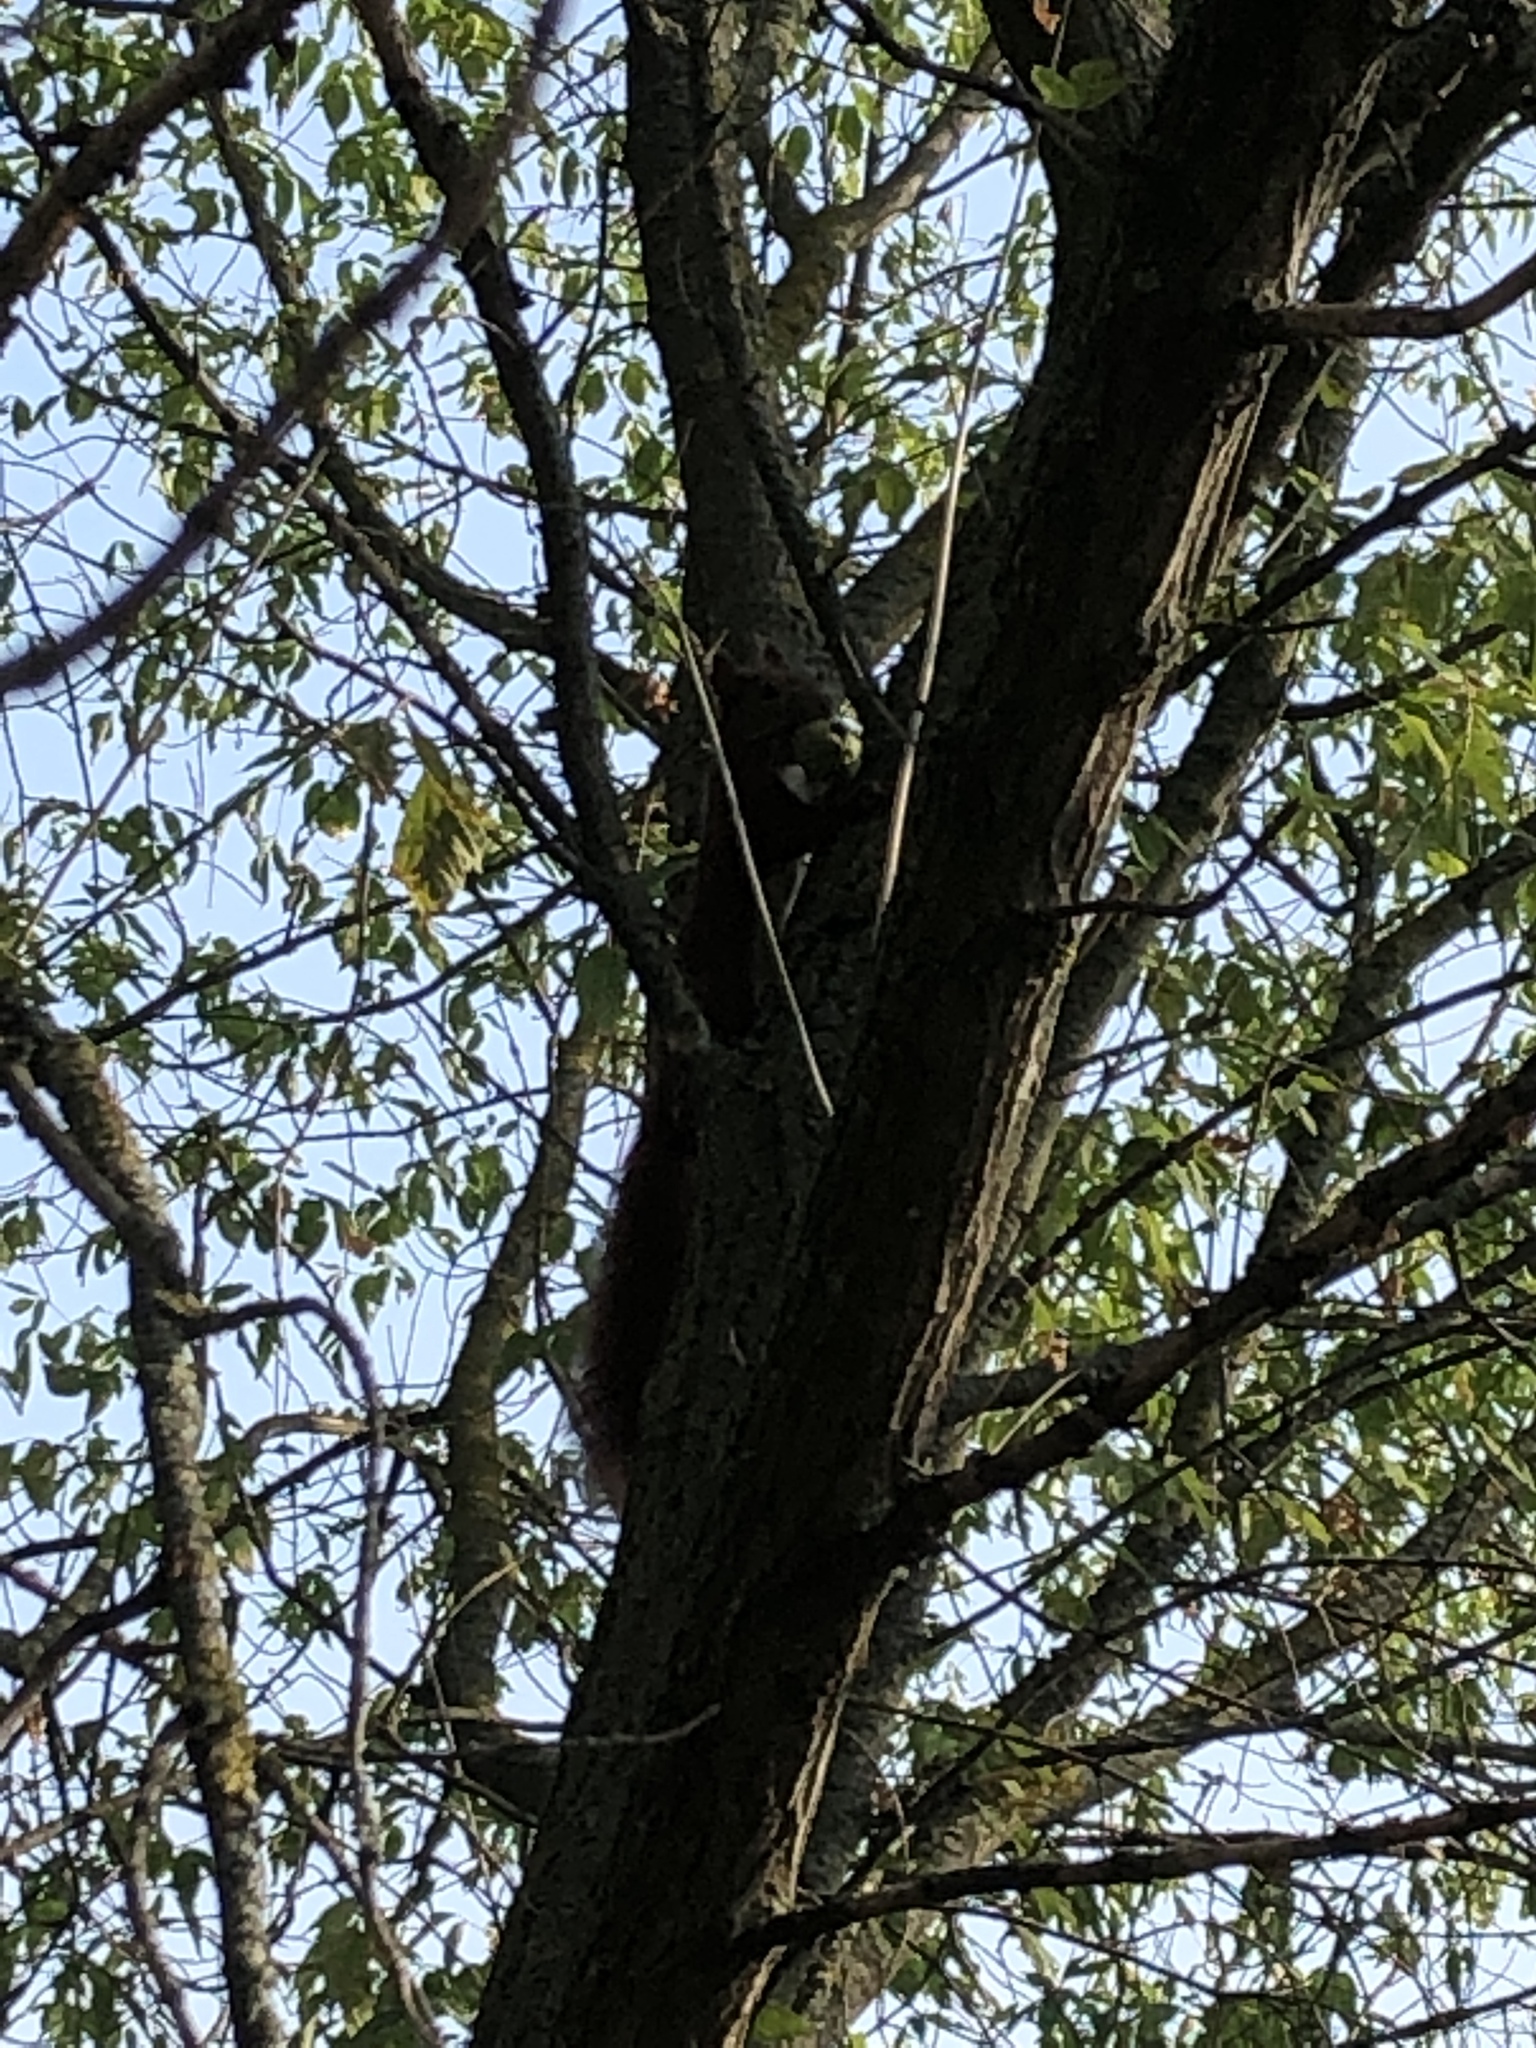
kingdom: Animalia
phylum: Chordata
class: Mammalia
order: Rodentia
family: Sciuridae
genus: Sciurus
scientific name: Sciurus vulgaris
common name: Eurasian red squirrel
